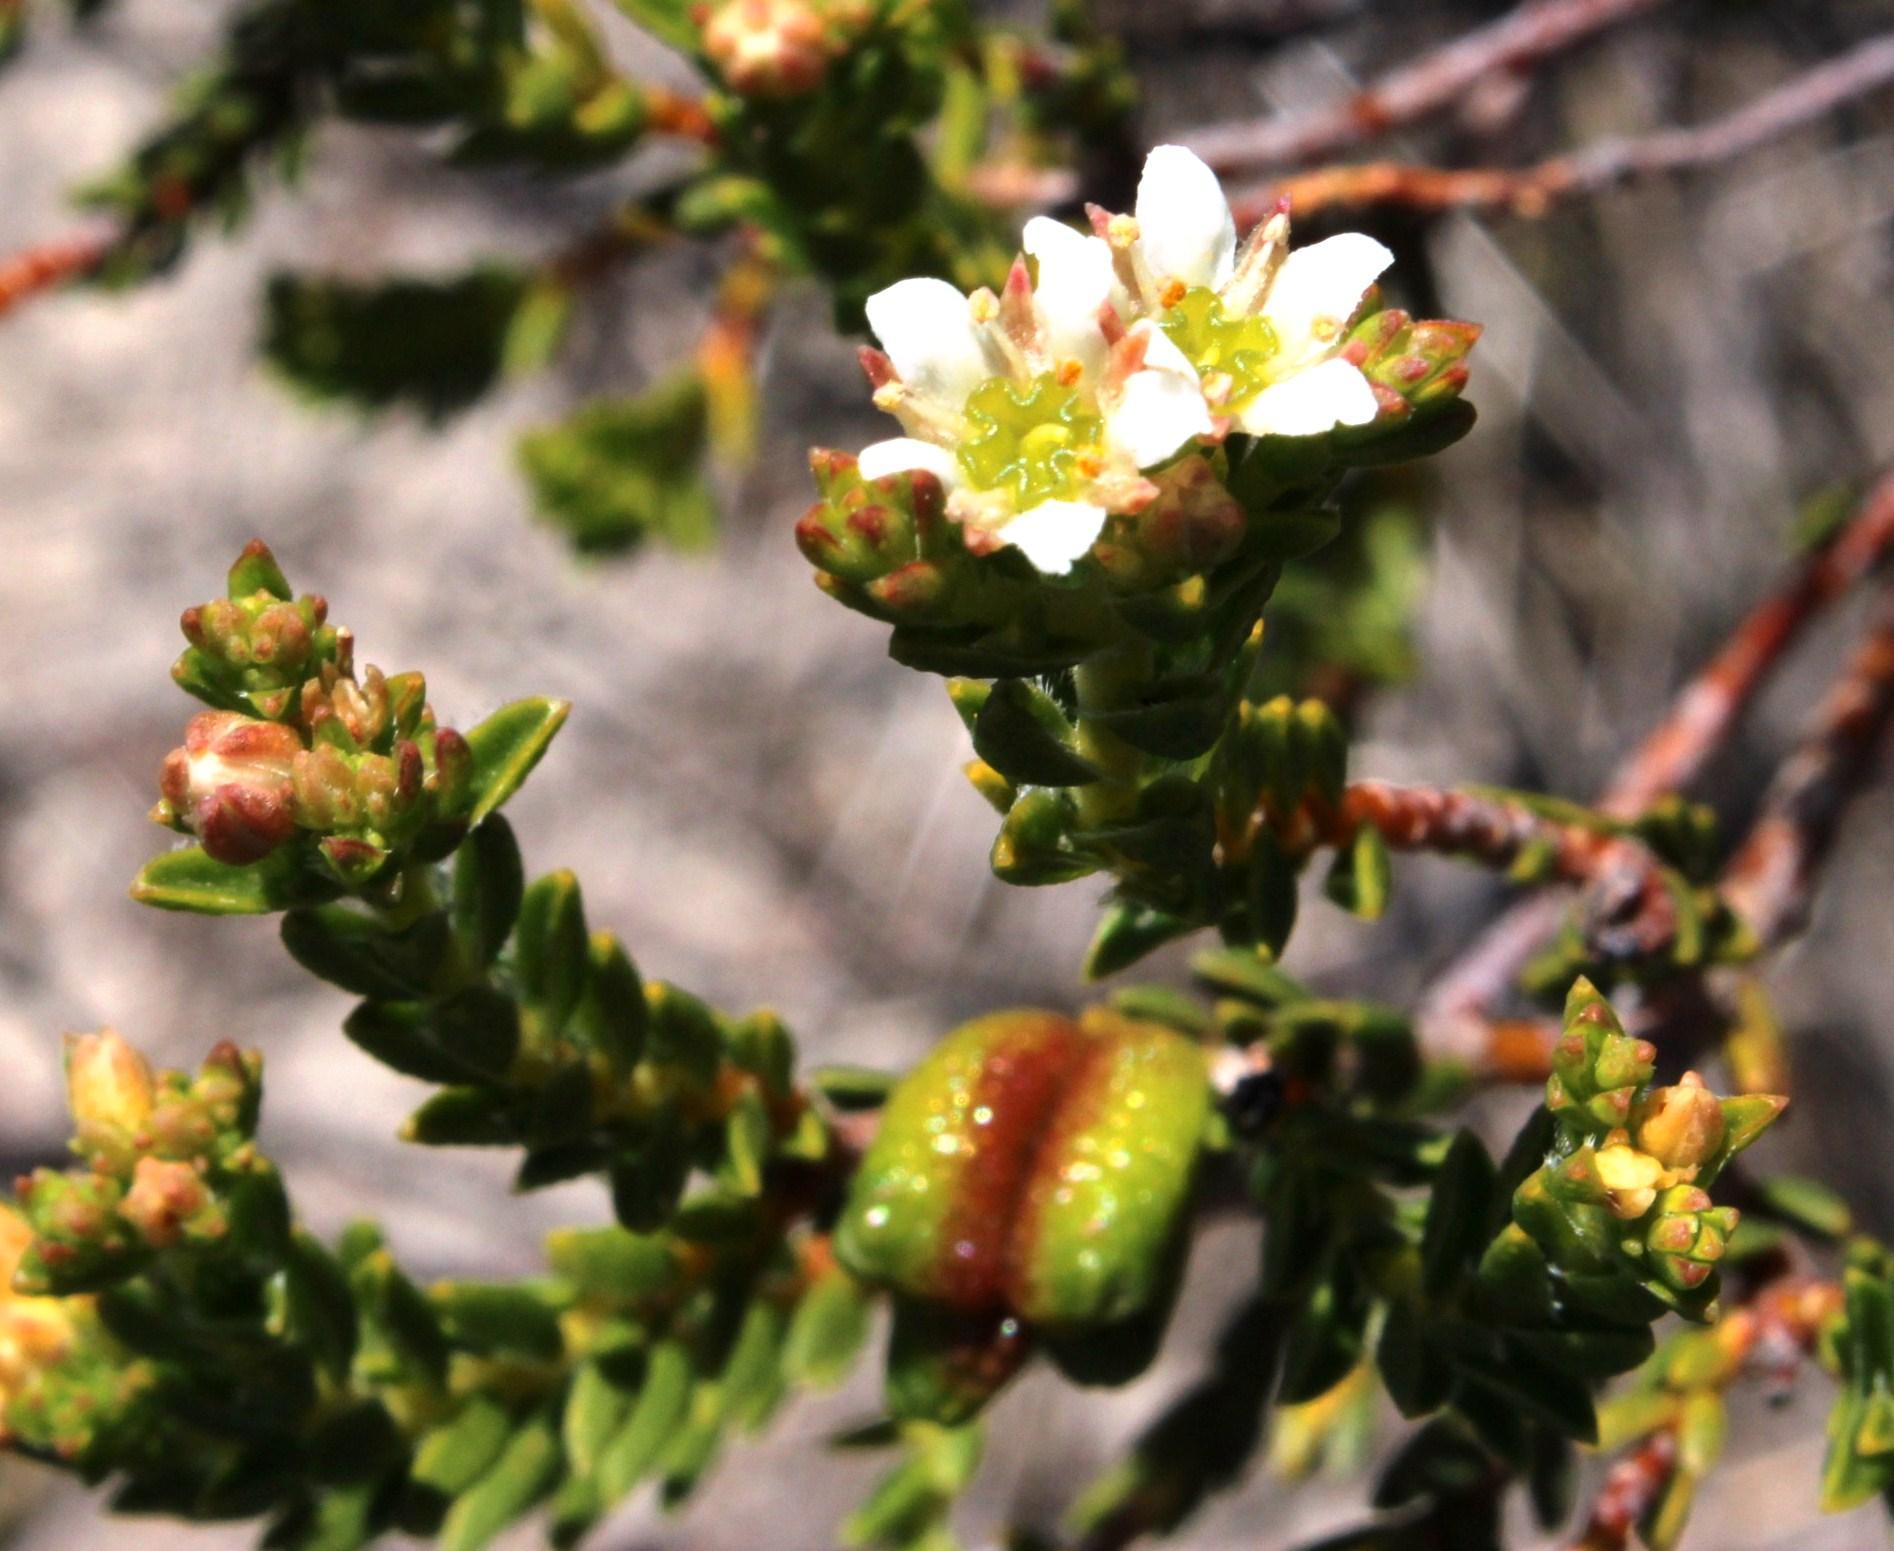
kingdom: Plantae
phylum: Tracheophyta
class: Magnoliopsida
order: Sapindales
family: Rutaceae
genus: Diosma
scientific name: Diosma oppositifolia
